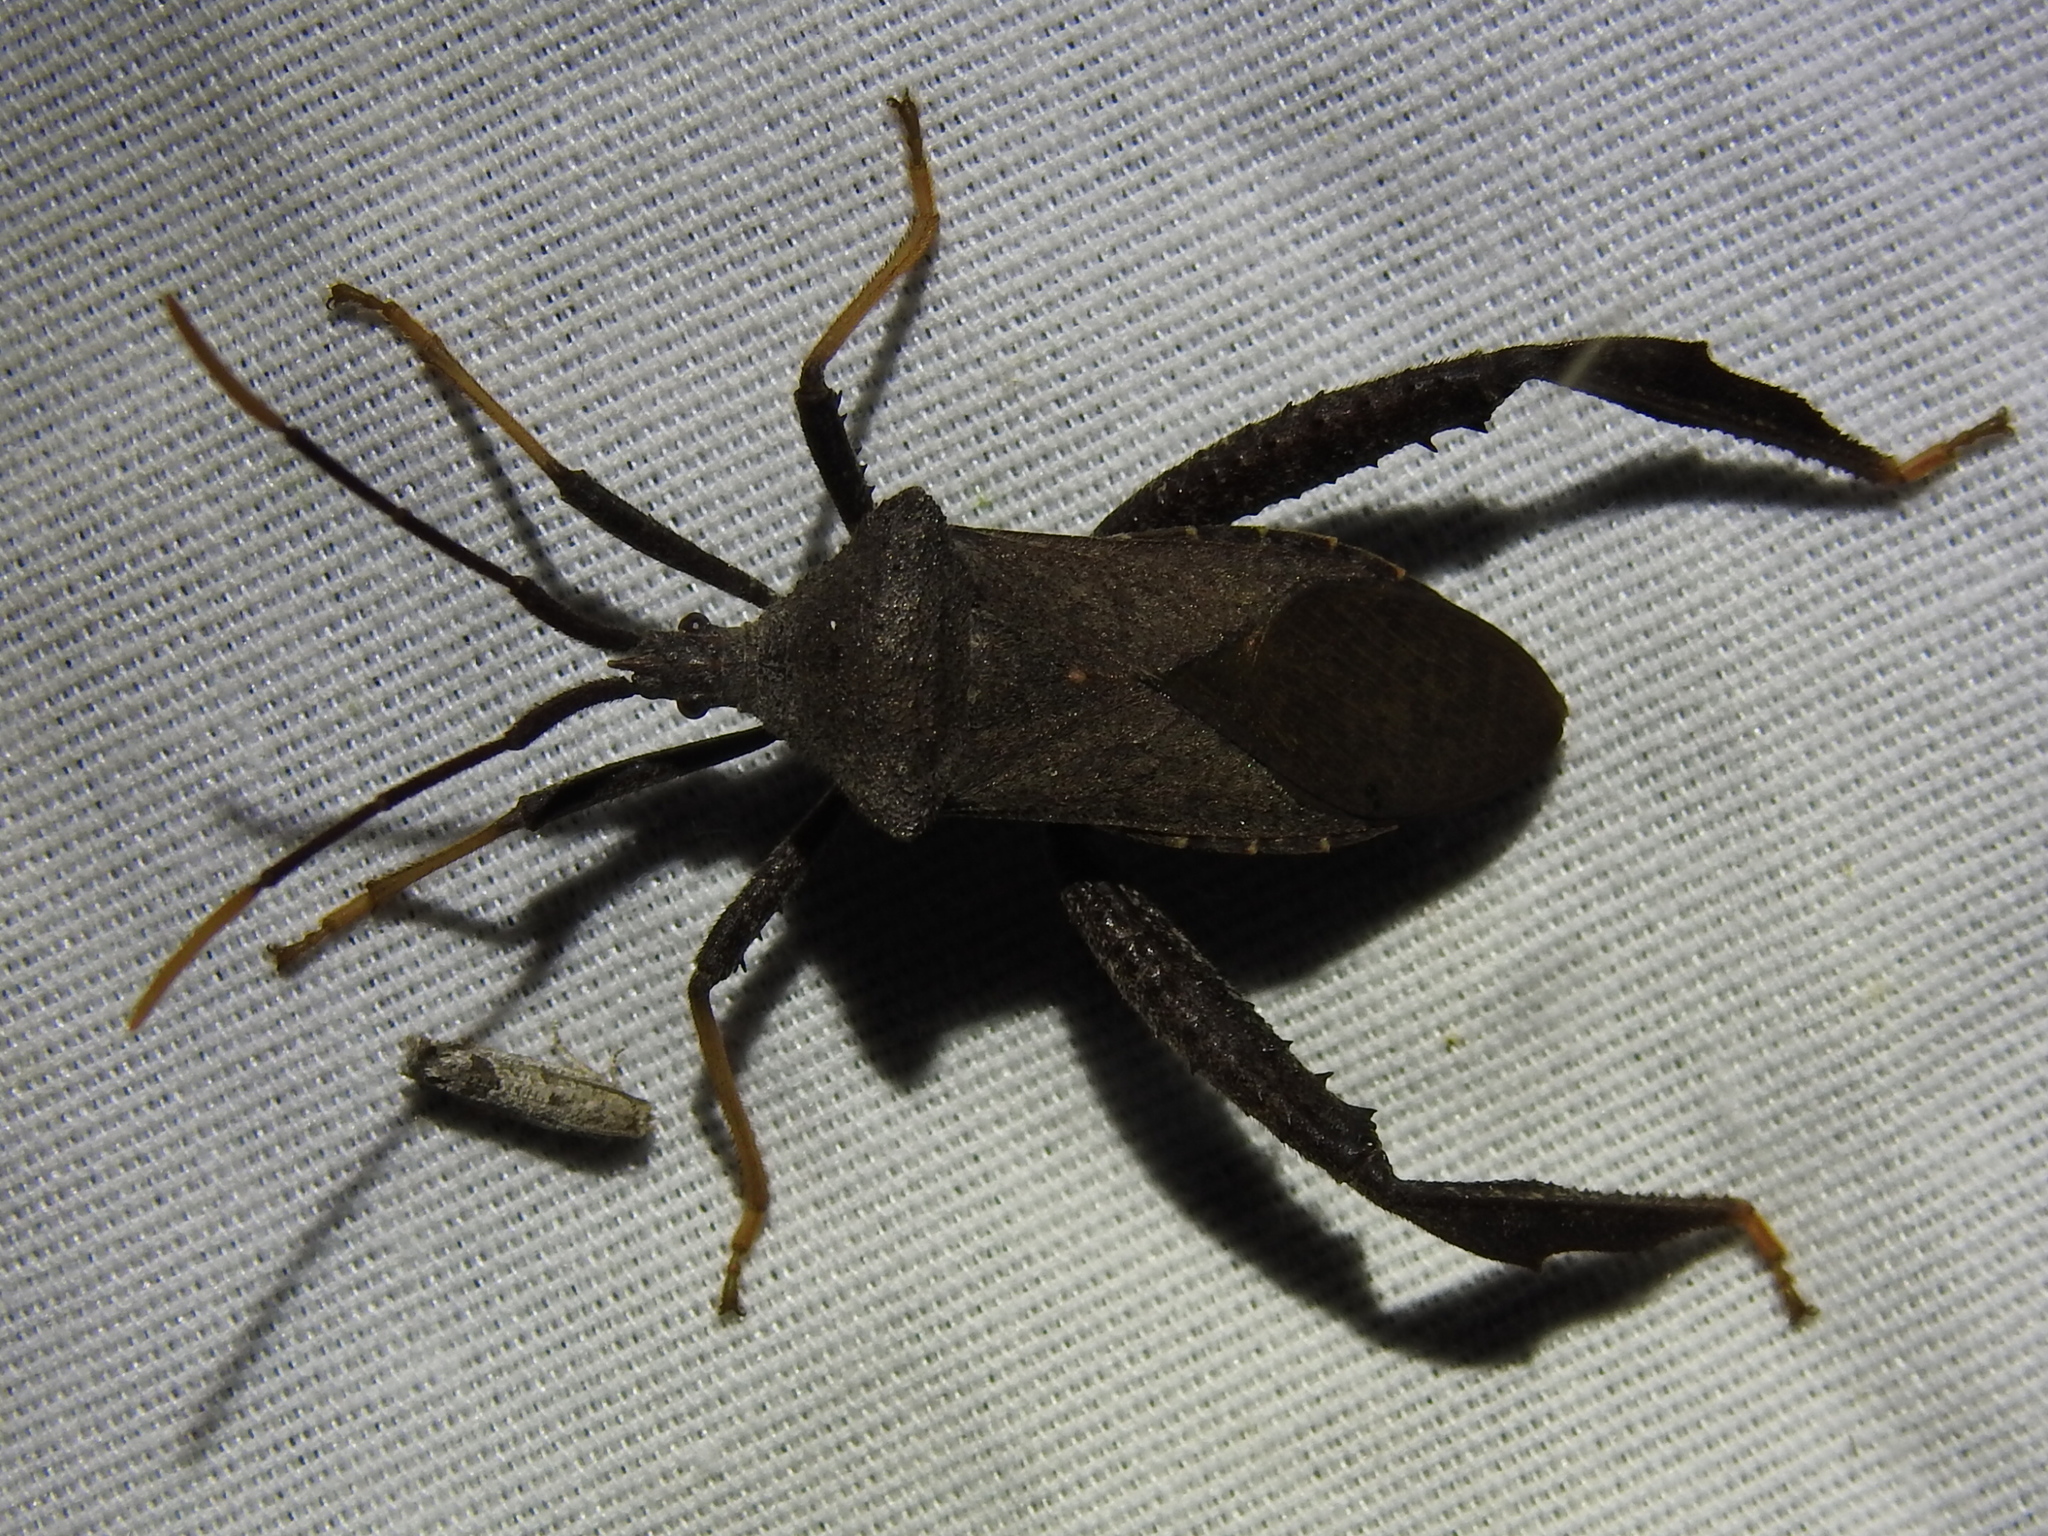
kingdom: Animalia
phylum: Arthropoda
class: Insecta
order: Hemiptera
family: Coreidae
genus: Acanthocephala
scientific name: Acanthocephala terminalis
